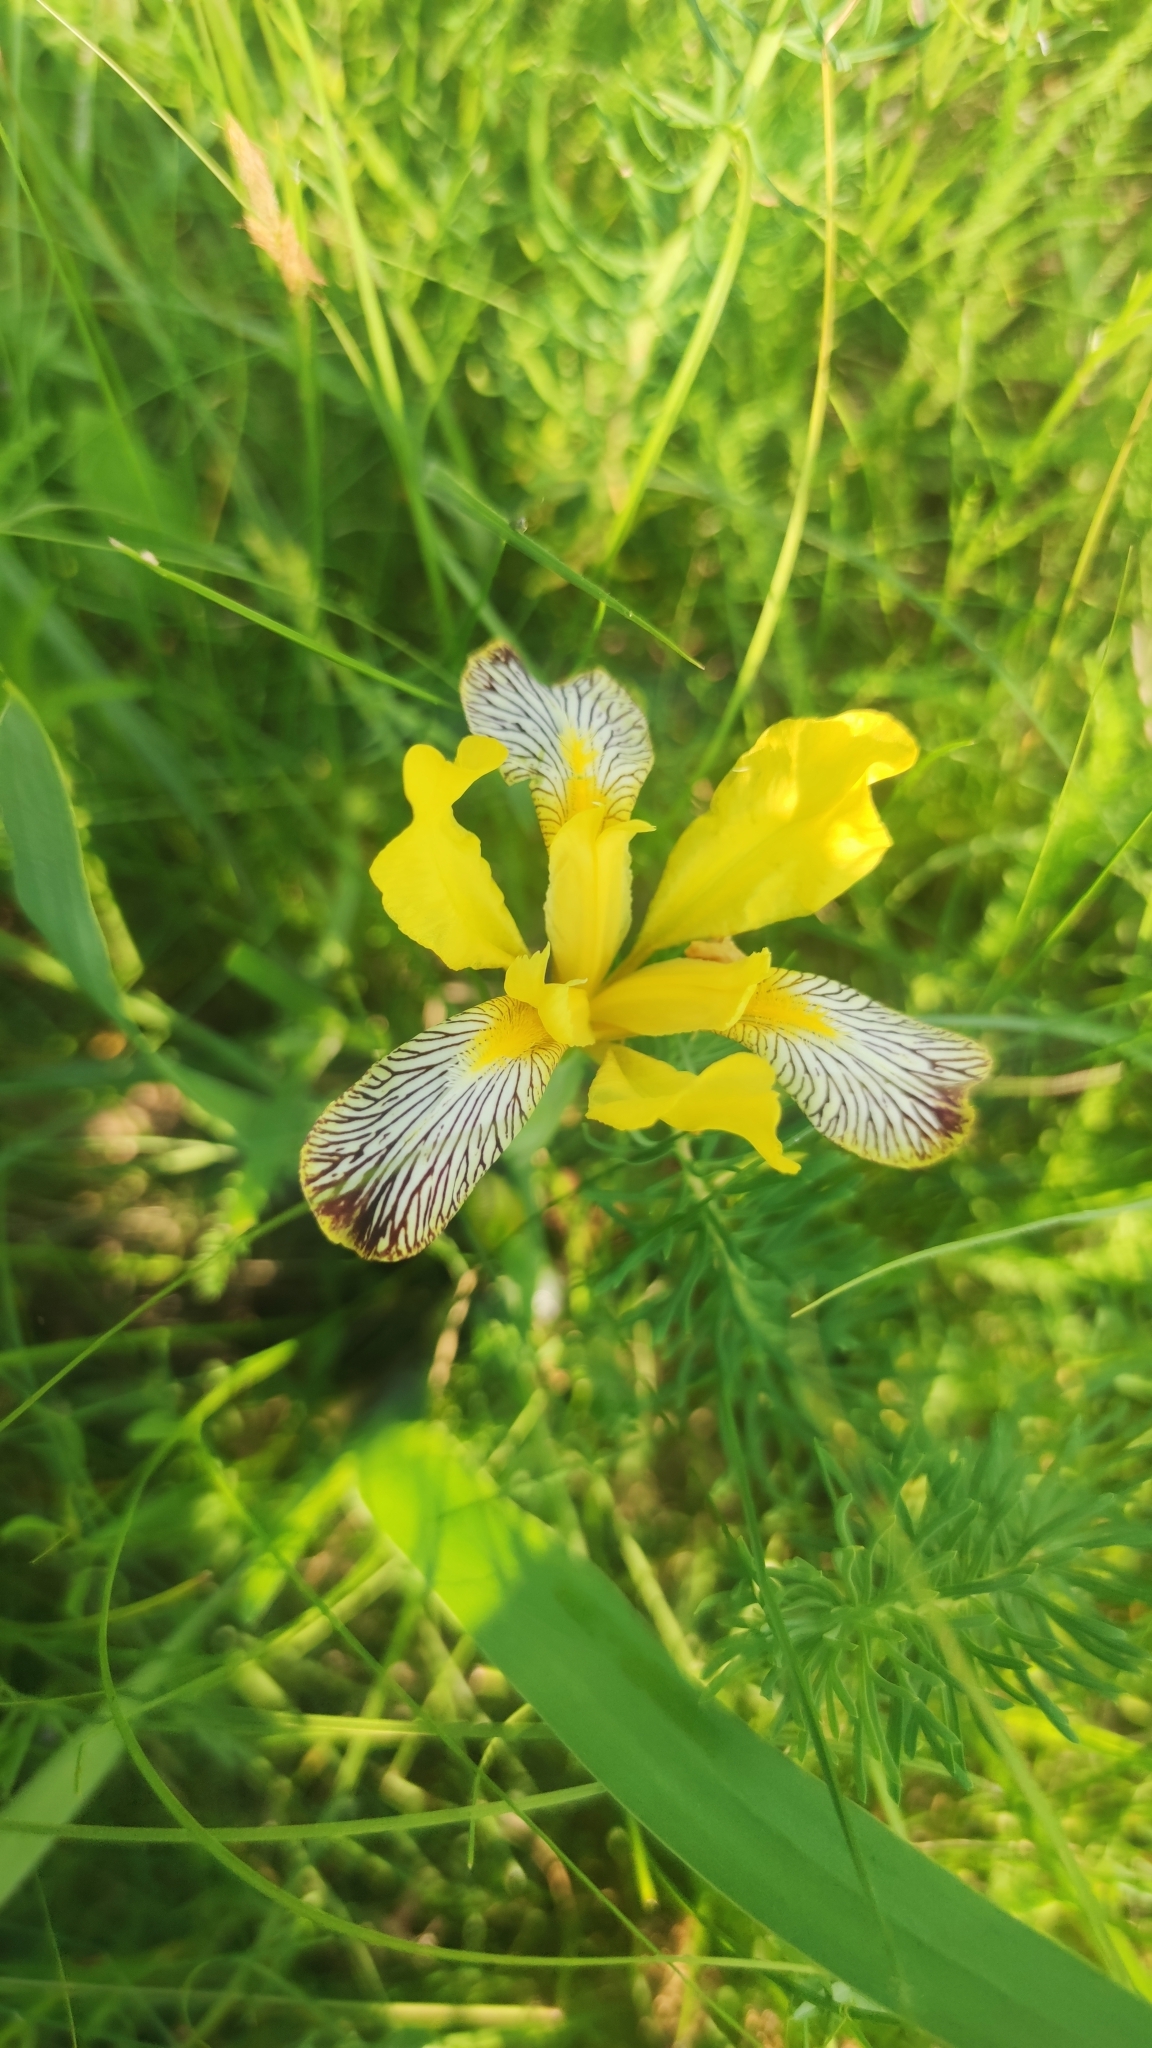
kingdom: Plantae
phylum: Tracheophyta
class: Liliopsida
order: Asparagales
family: Iridaceae
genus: Iris
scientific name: Iris variegata
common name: Hungarian iris
